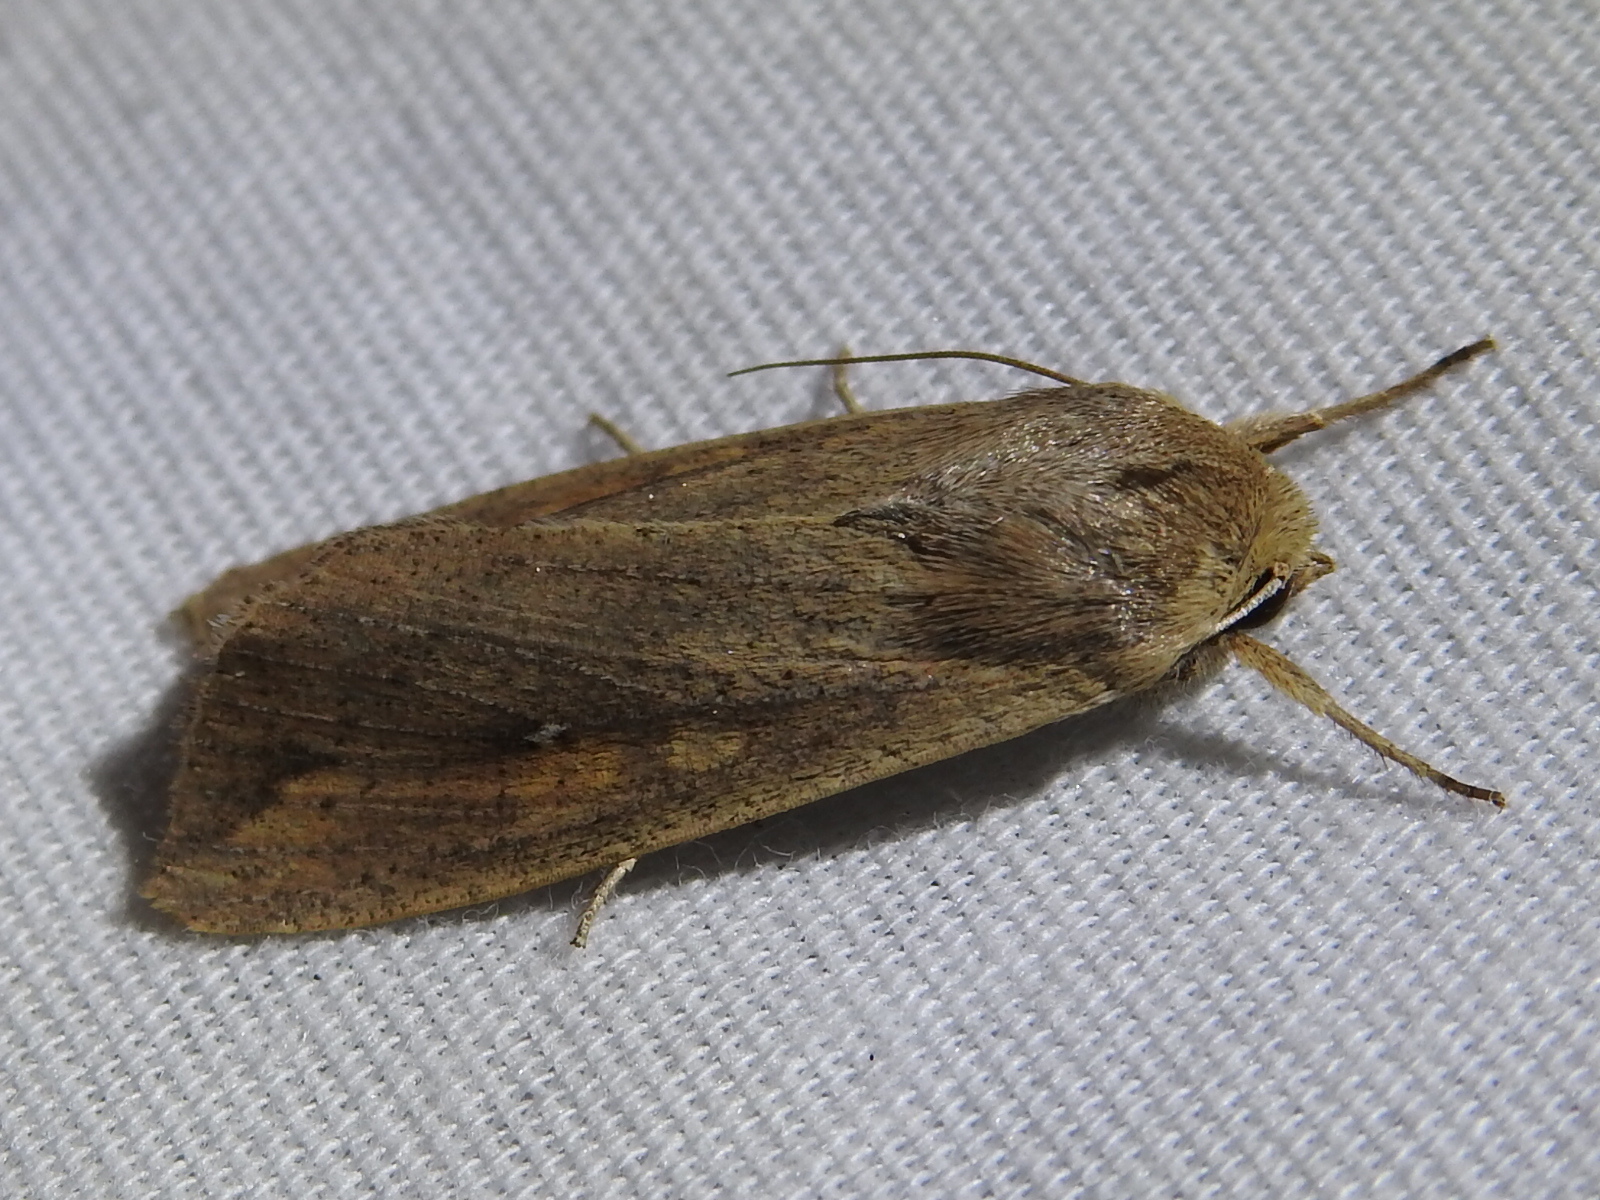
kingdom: Animalia
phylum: Arthropoda
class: Insecta
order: Lepidoptera
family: Noctuidae
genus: Mythimna
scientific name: Mythimna unipuncta
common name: White-speck
